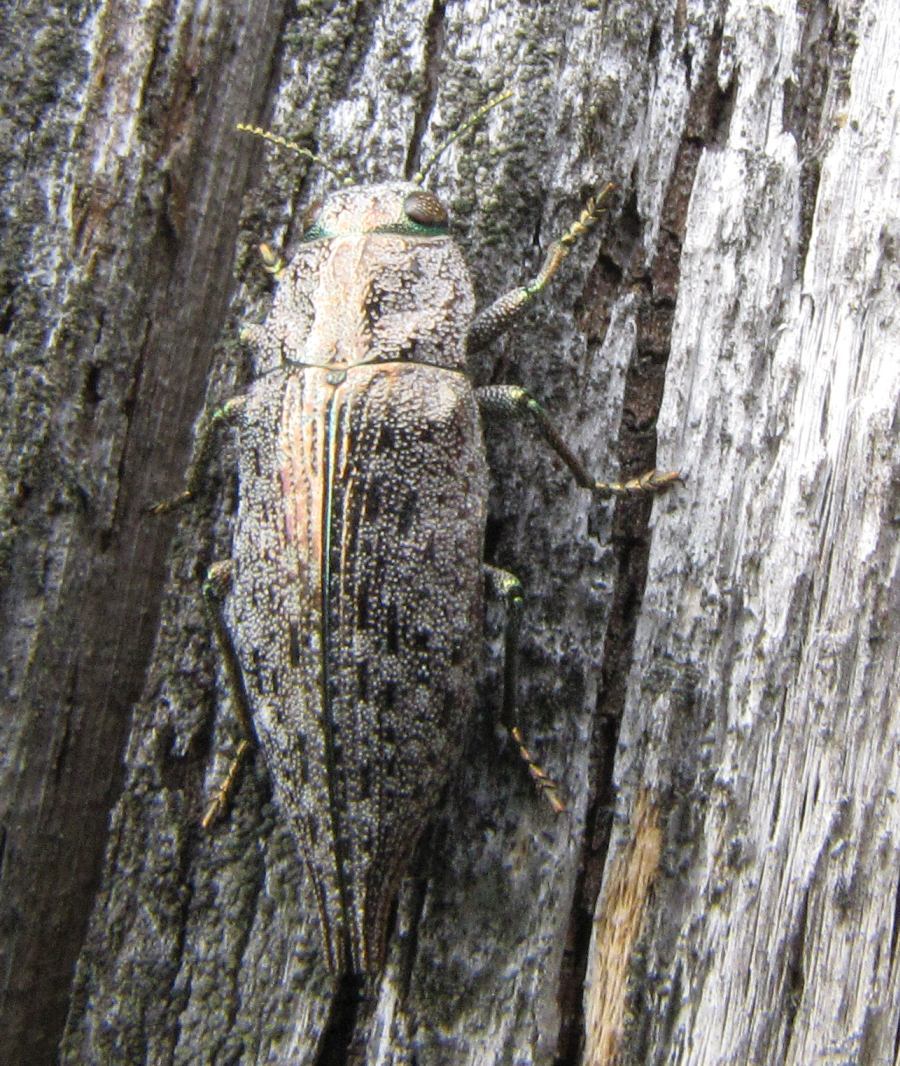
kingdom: Animalia
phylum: Arthropoda
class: Insecta
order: Coleoptera
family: Buprestidae
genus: Dicerca
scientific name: Dicerca divaricata
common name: Flat-headed hardwood borer
